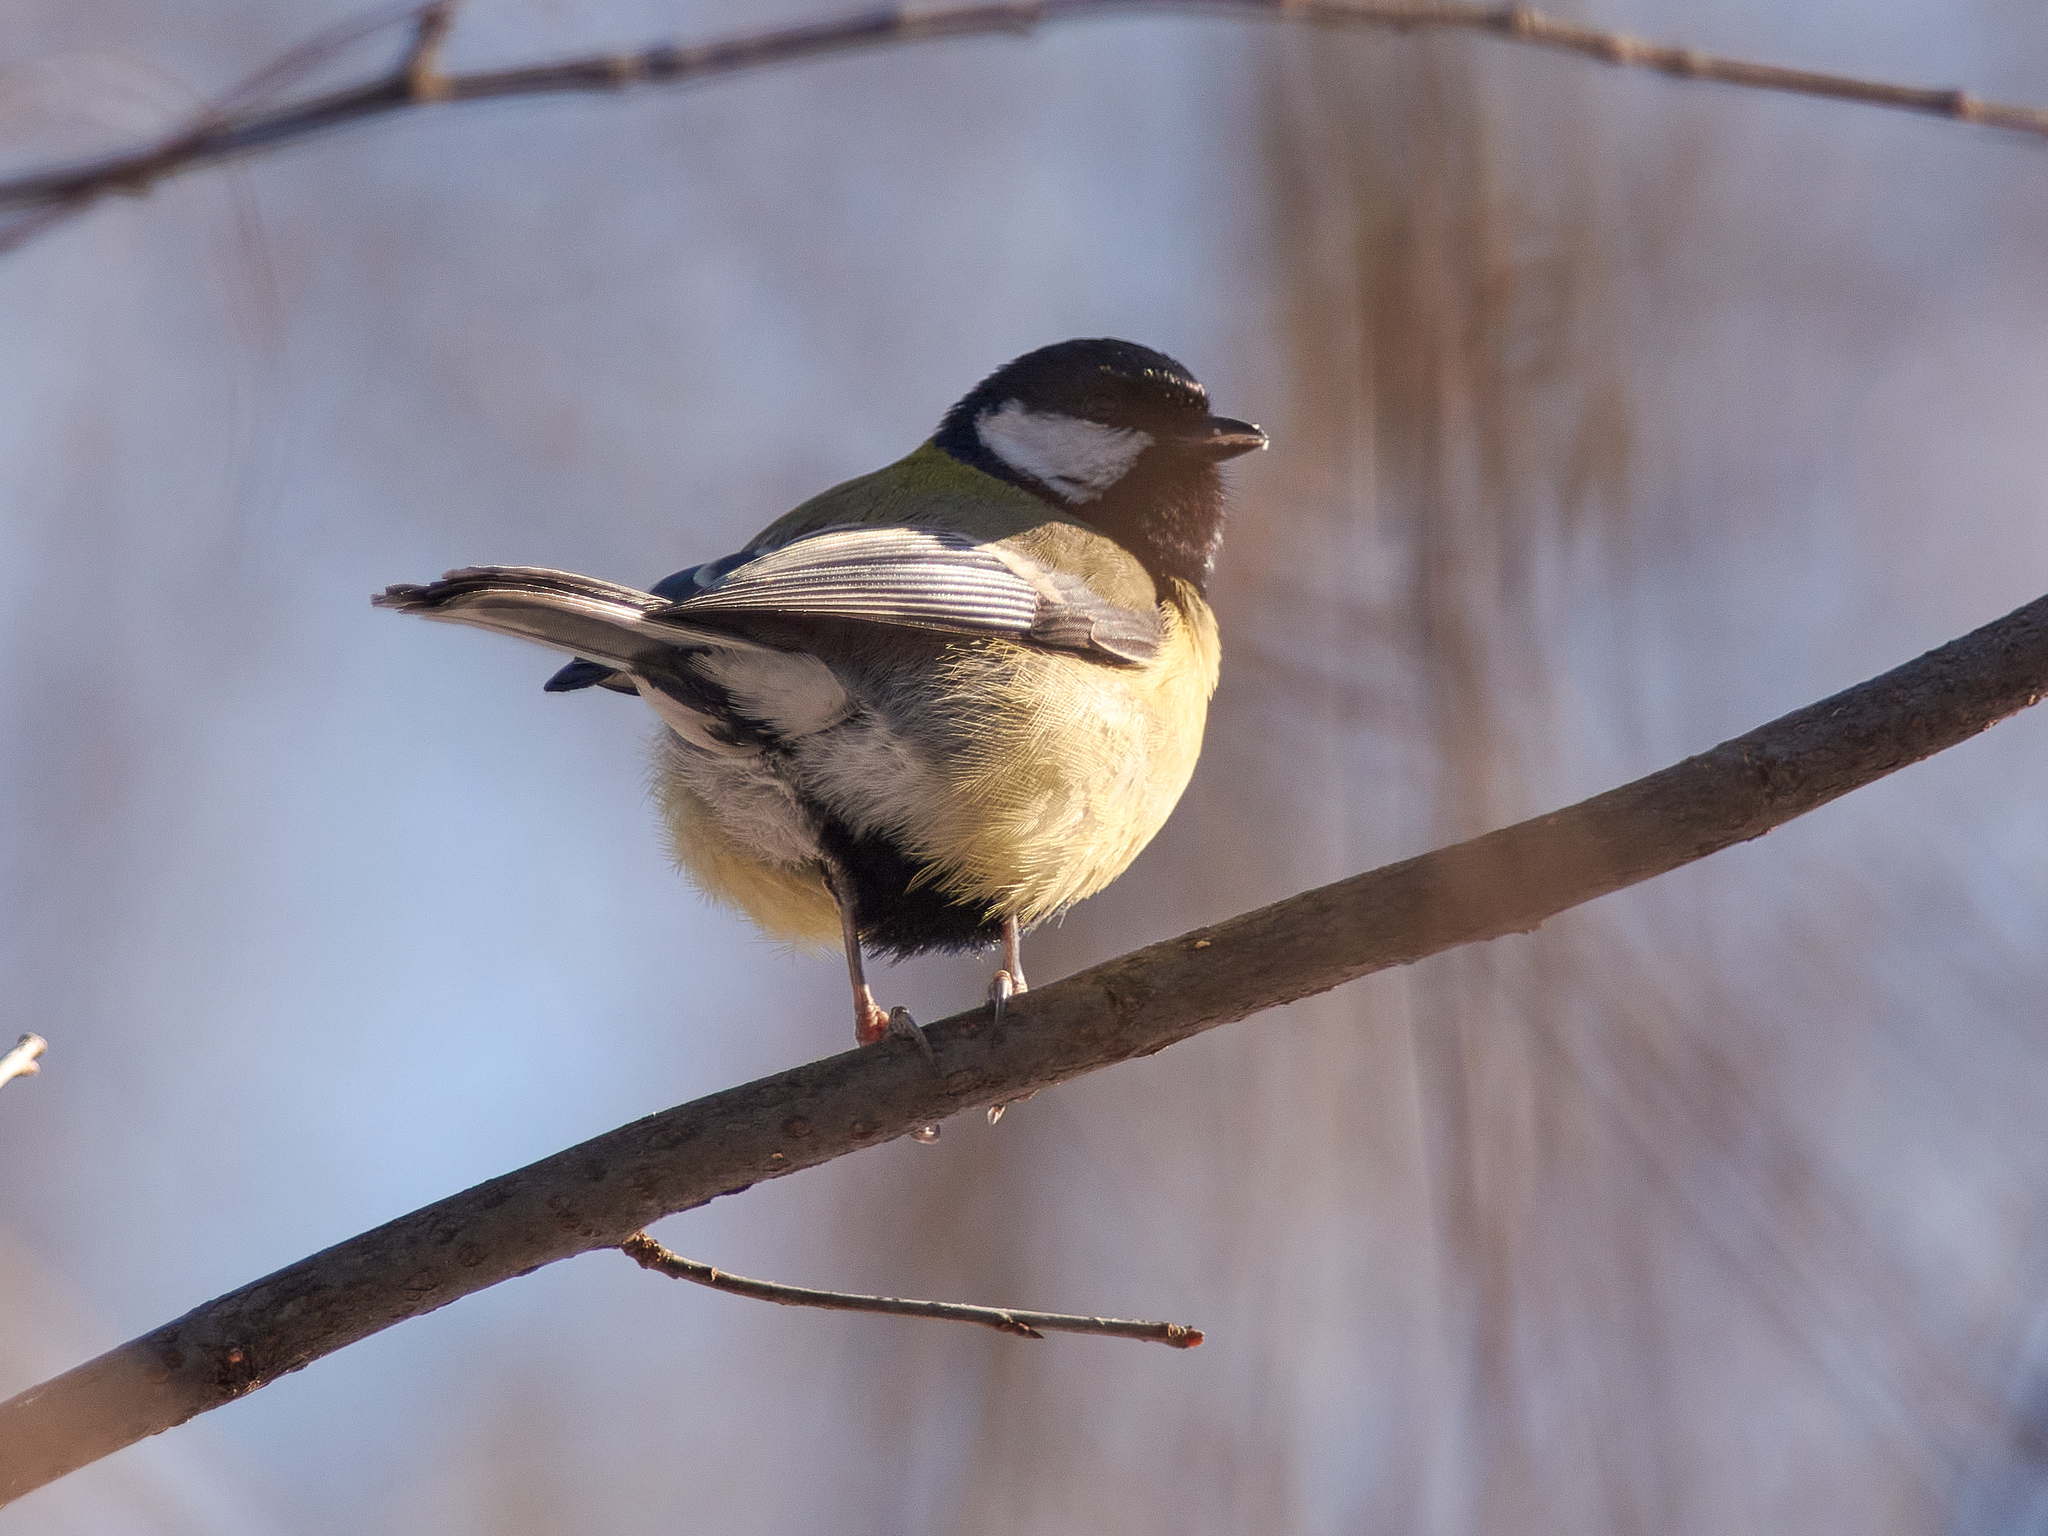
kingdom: Animalia
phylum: Chordata
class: Aves
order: Passeriformes
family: Paridae
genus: Parus
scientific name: Parus major
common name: Great tit
